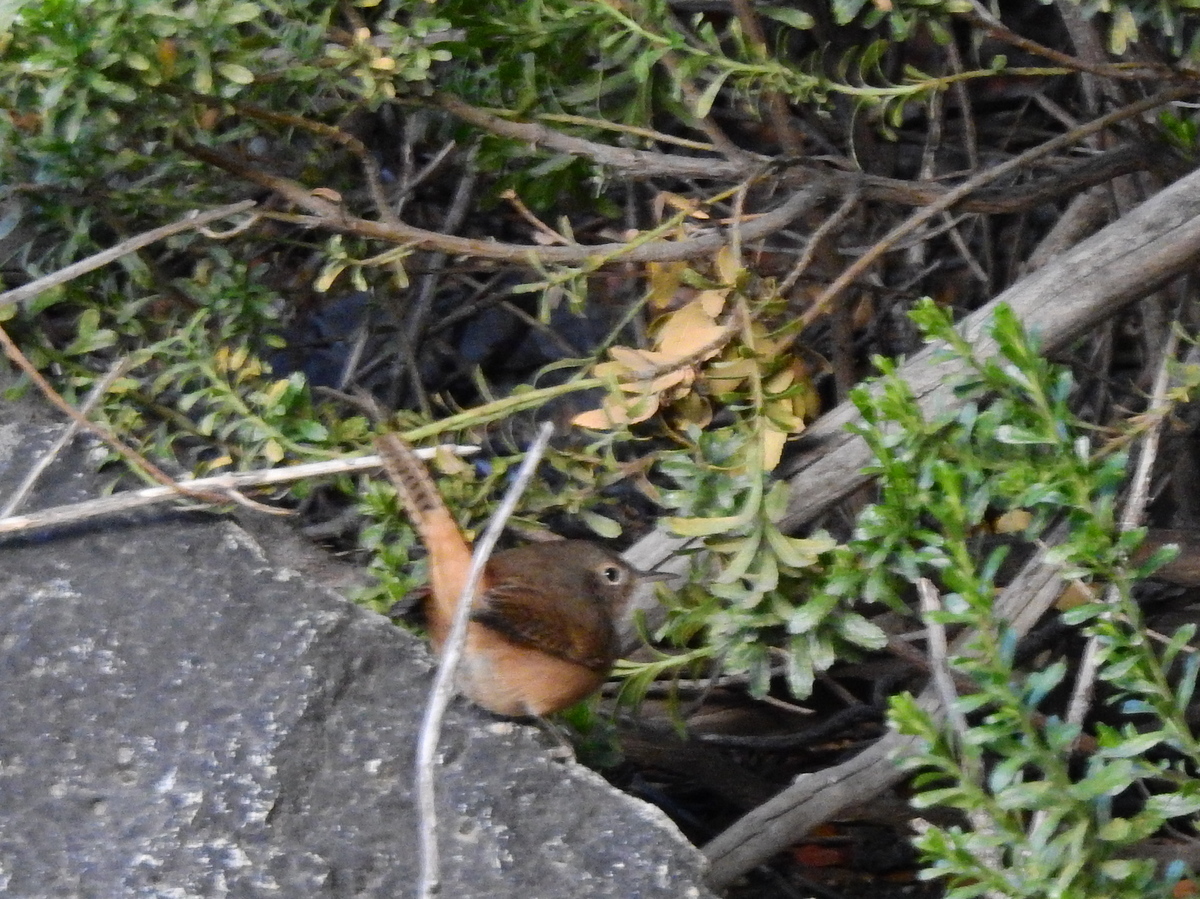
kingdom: Animalia
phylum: Chordata
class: Aves
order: Passeriformes
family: Troglodytidae
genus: Troglodytes
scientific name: Troglodytes aedon
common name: House wren
